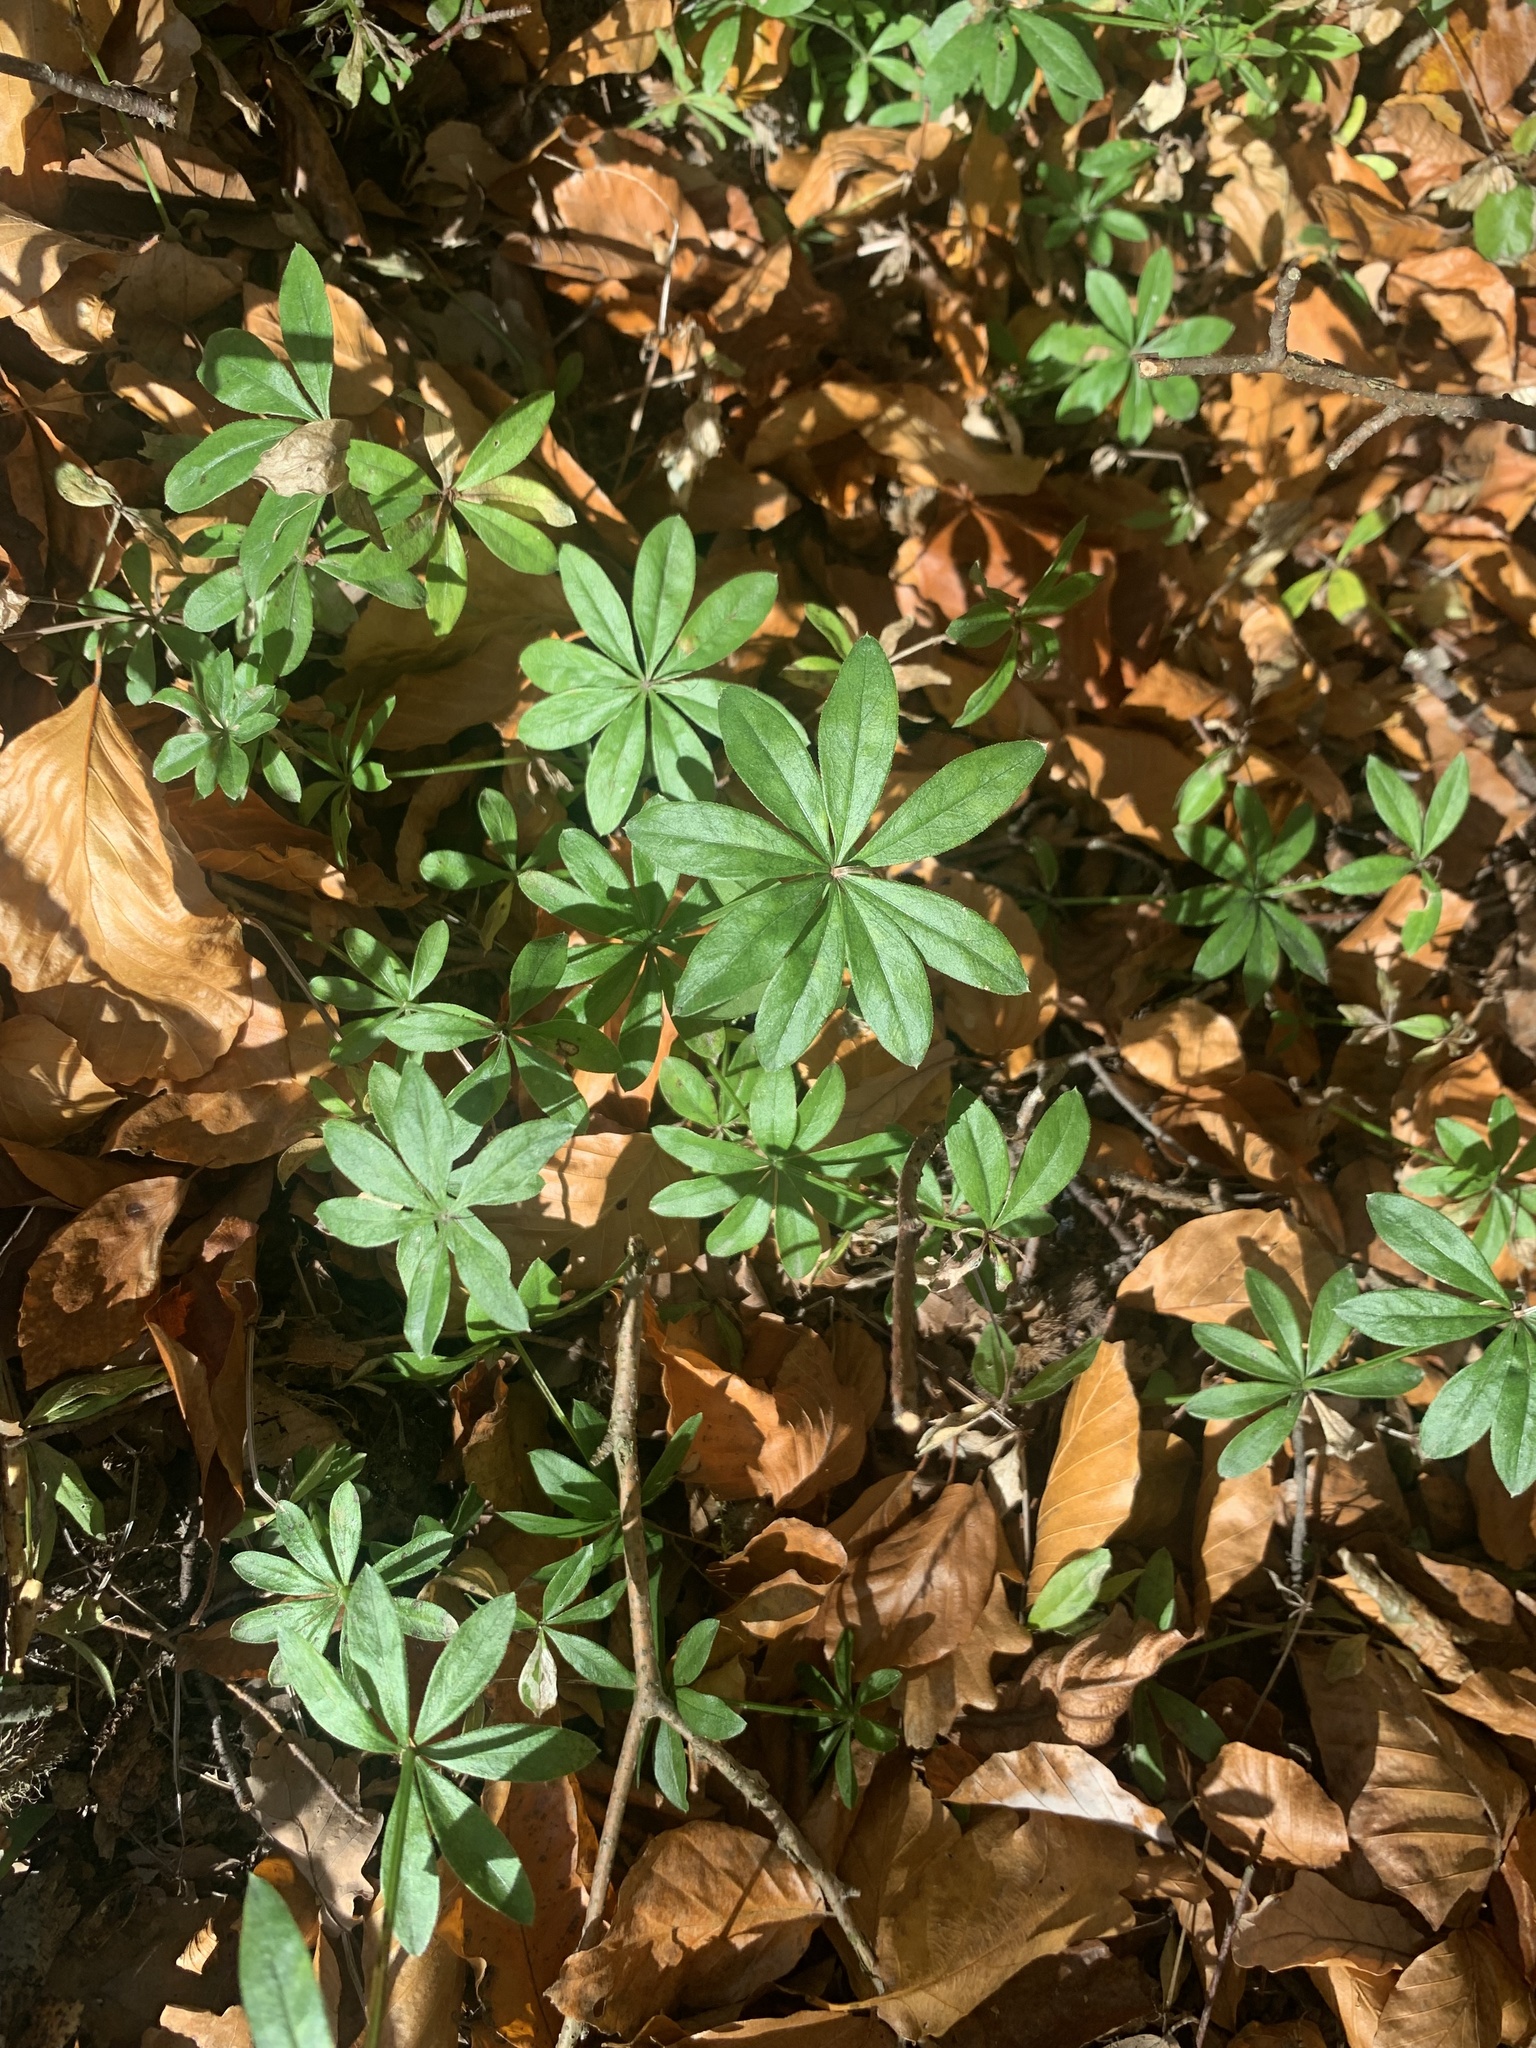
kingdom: Plantae
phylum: Tracheophyta
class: Magnoliopsida
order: Gentianales
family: Rubiaceae
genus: Galium
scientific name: Galium odoratum
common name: Sweet woodruff
